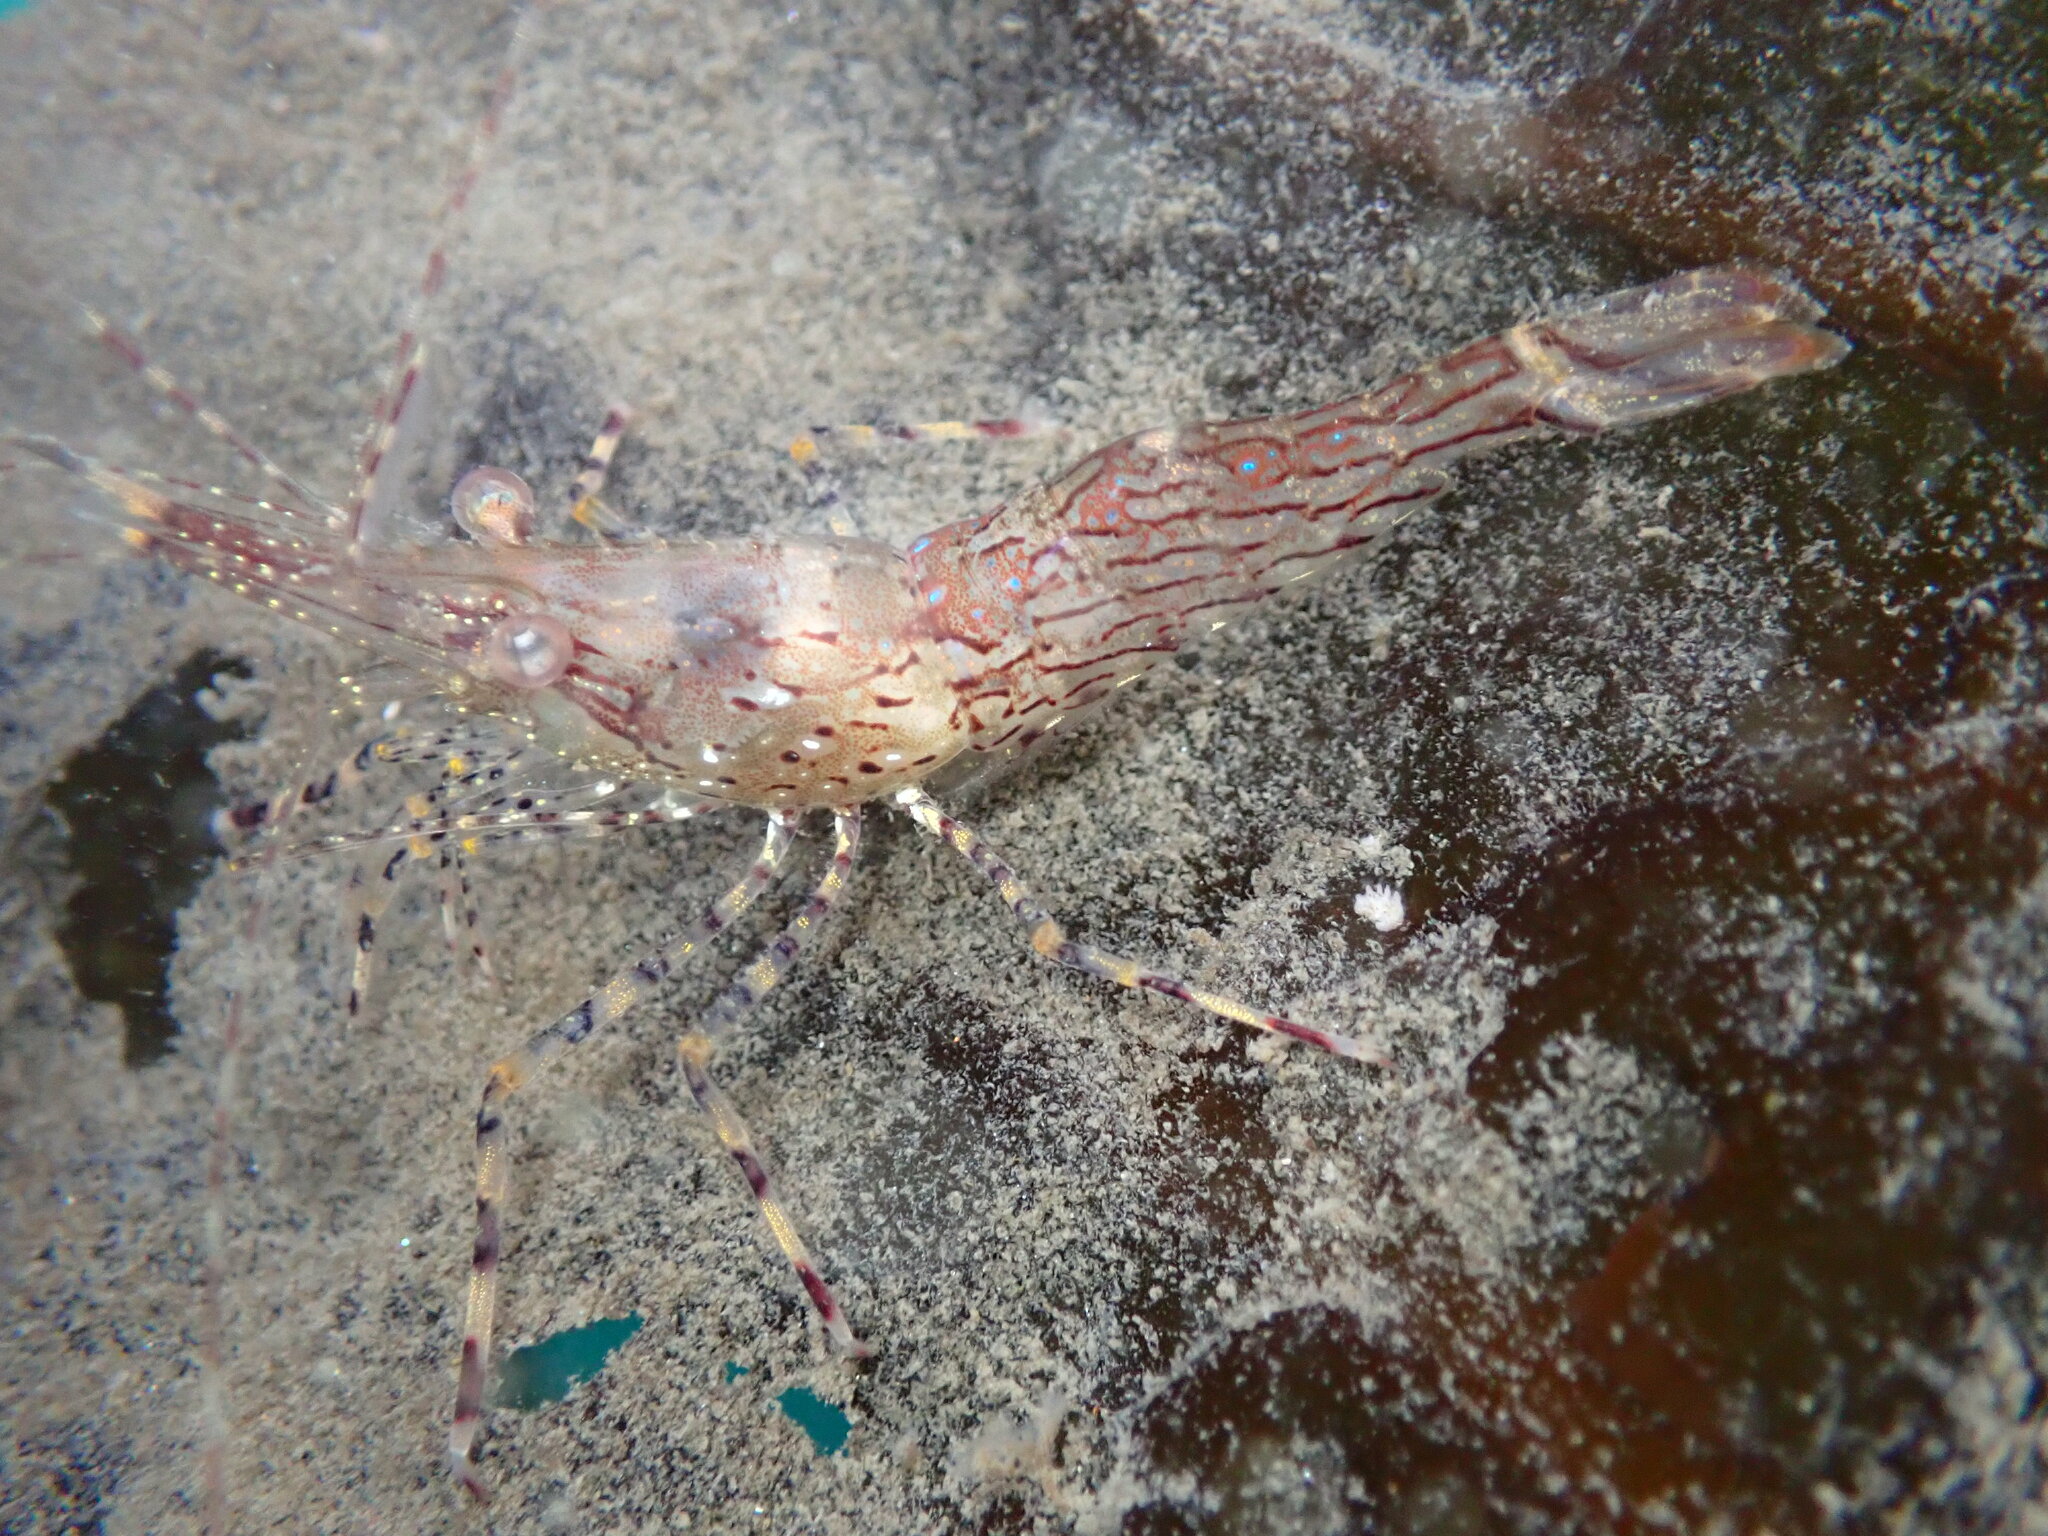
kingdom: Animalia
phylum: Arthropoda
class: Malacostraca
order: Decapoda
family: Pandalidae
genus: Pandalus
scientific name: Pandalus danae
